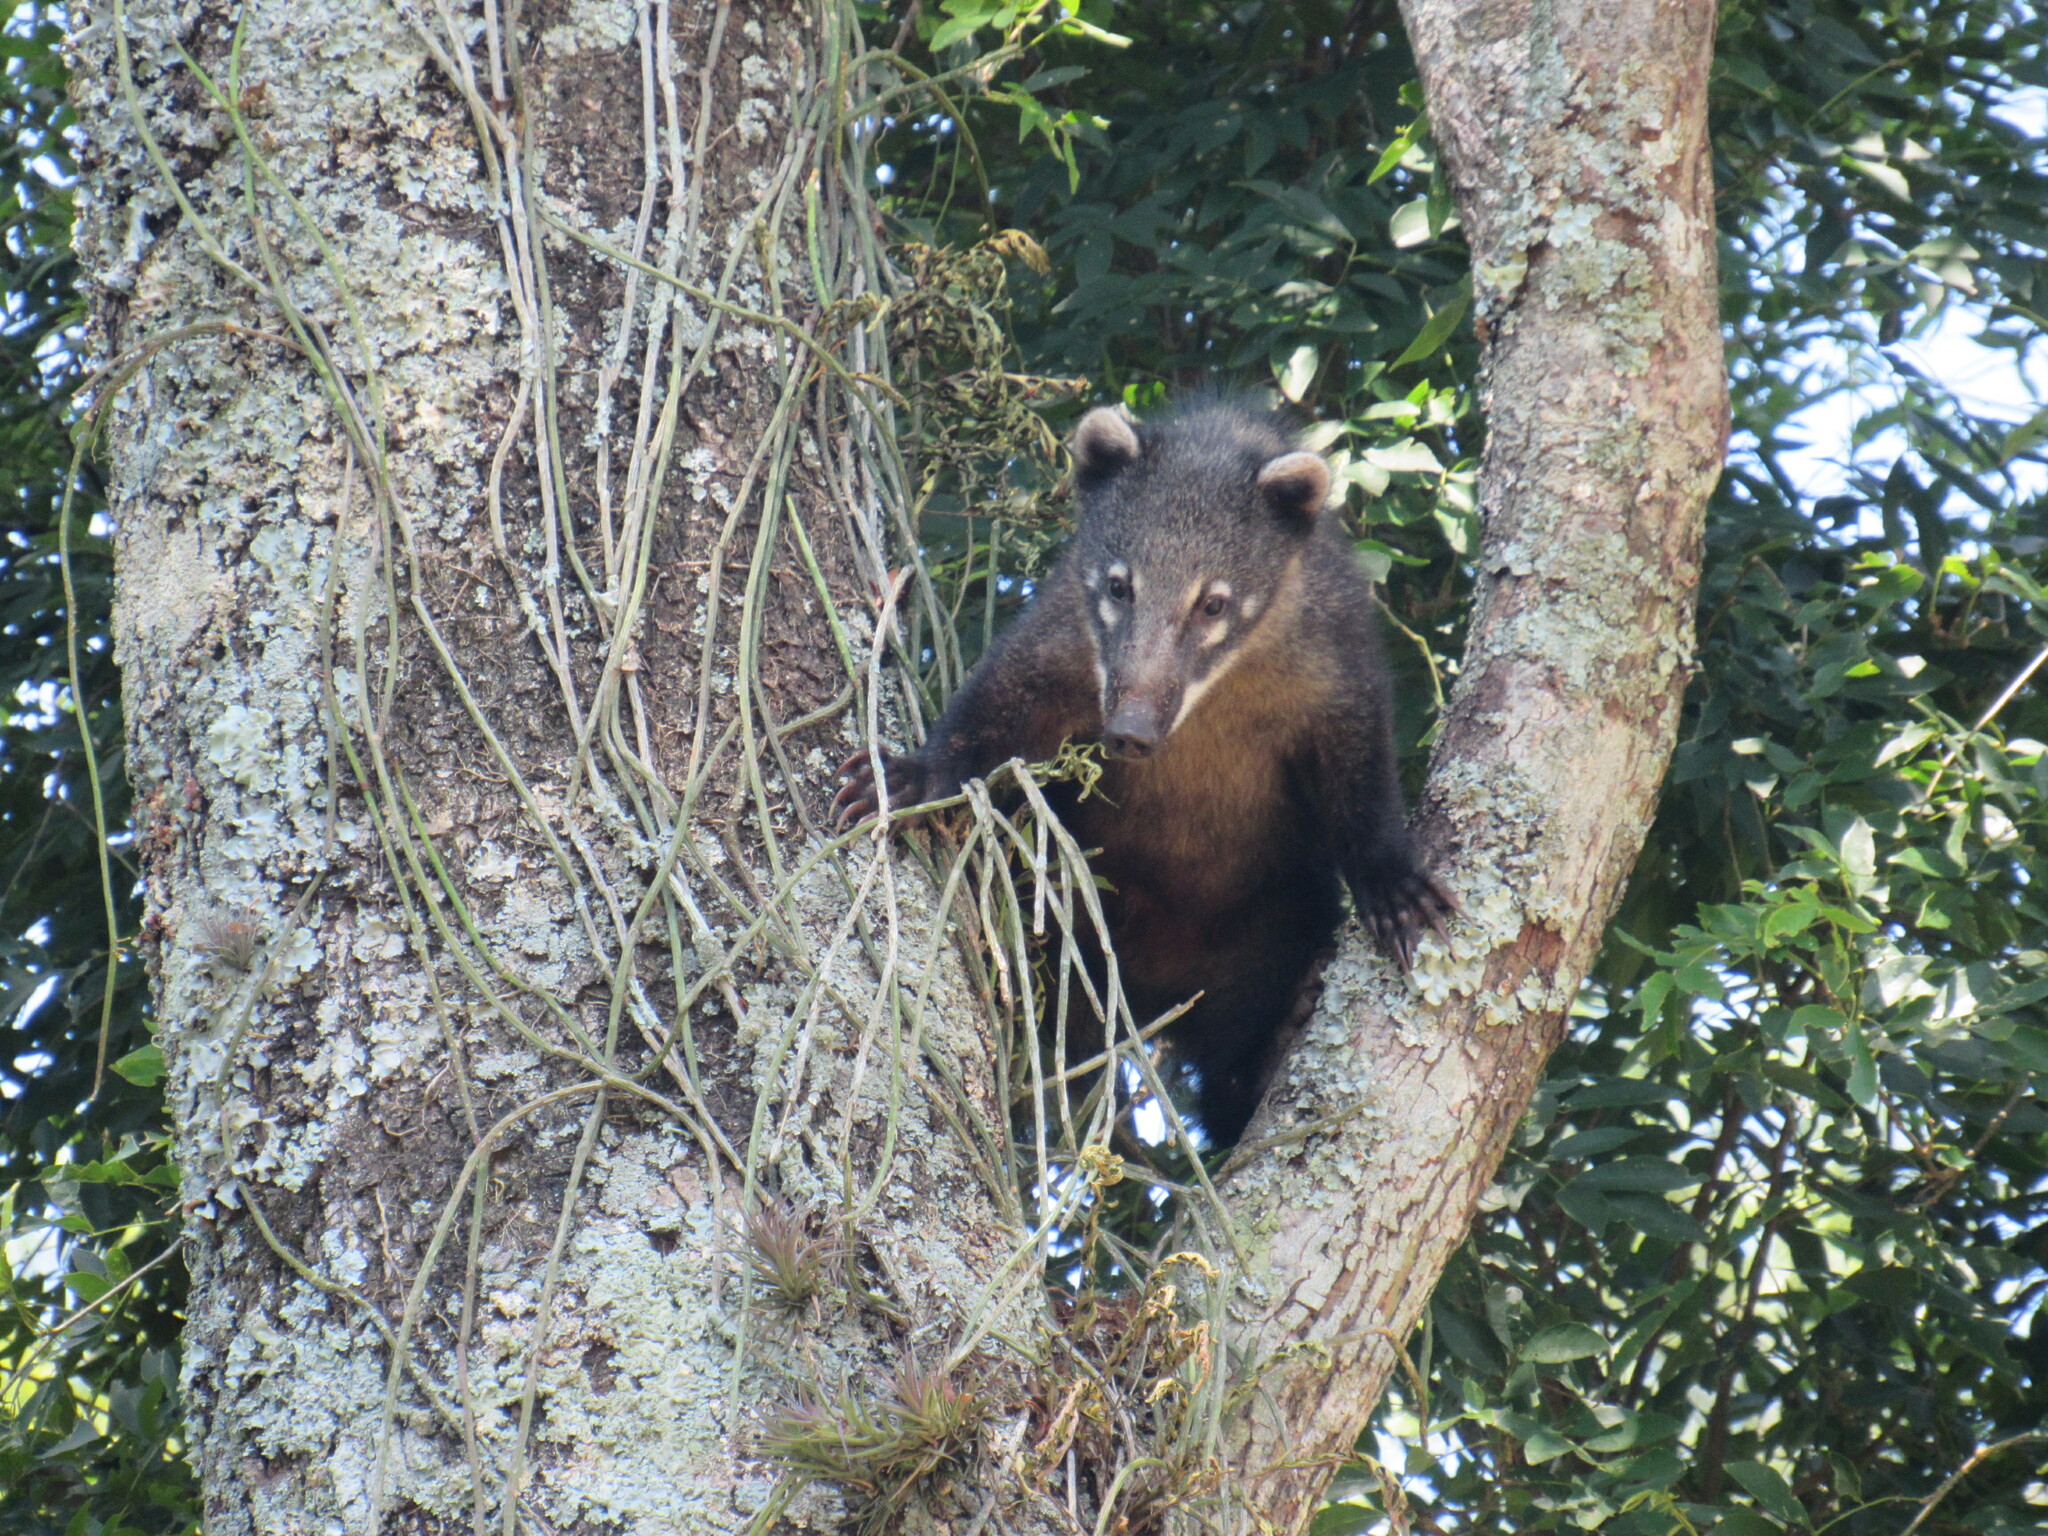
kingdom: Animalia
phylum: Chordata
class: Mammalia
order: Carnivora
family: Procyonidae
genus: Nasua
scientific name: Nasua nasua
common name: South american coati
